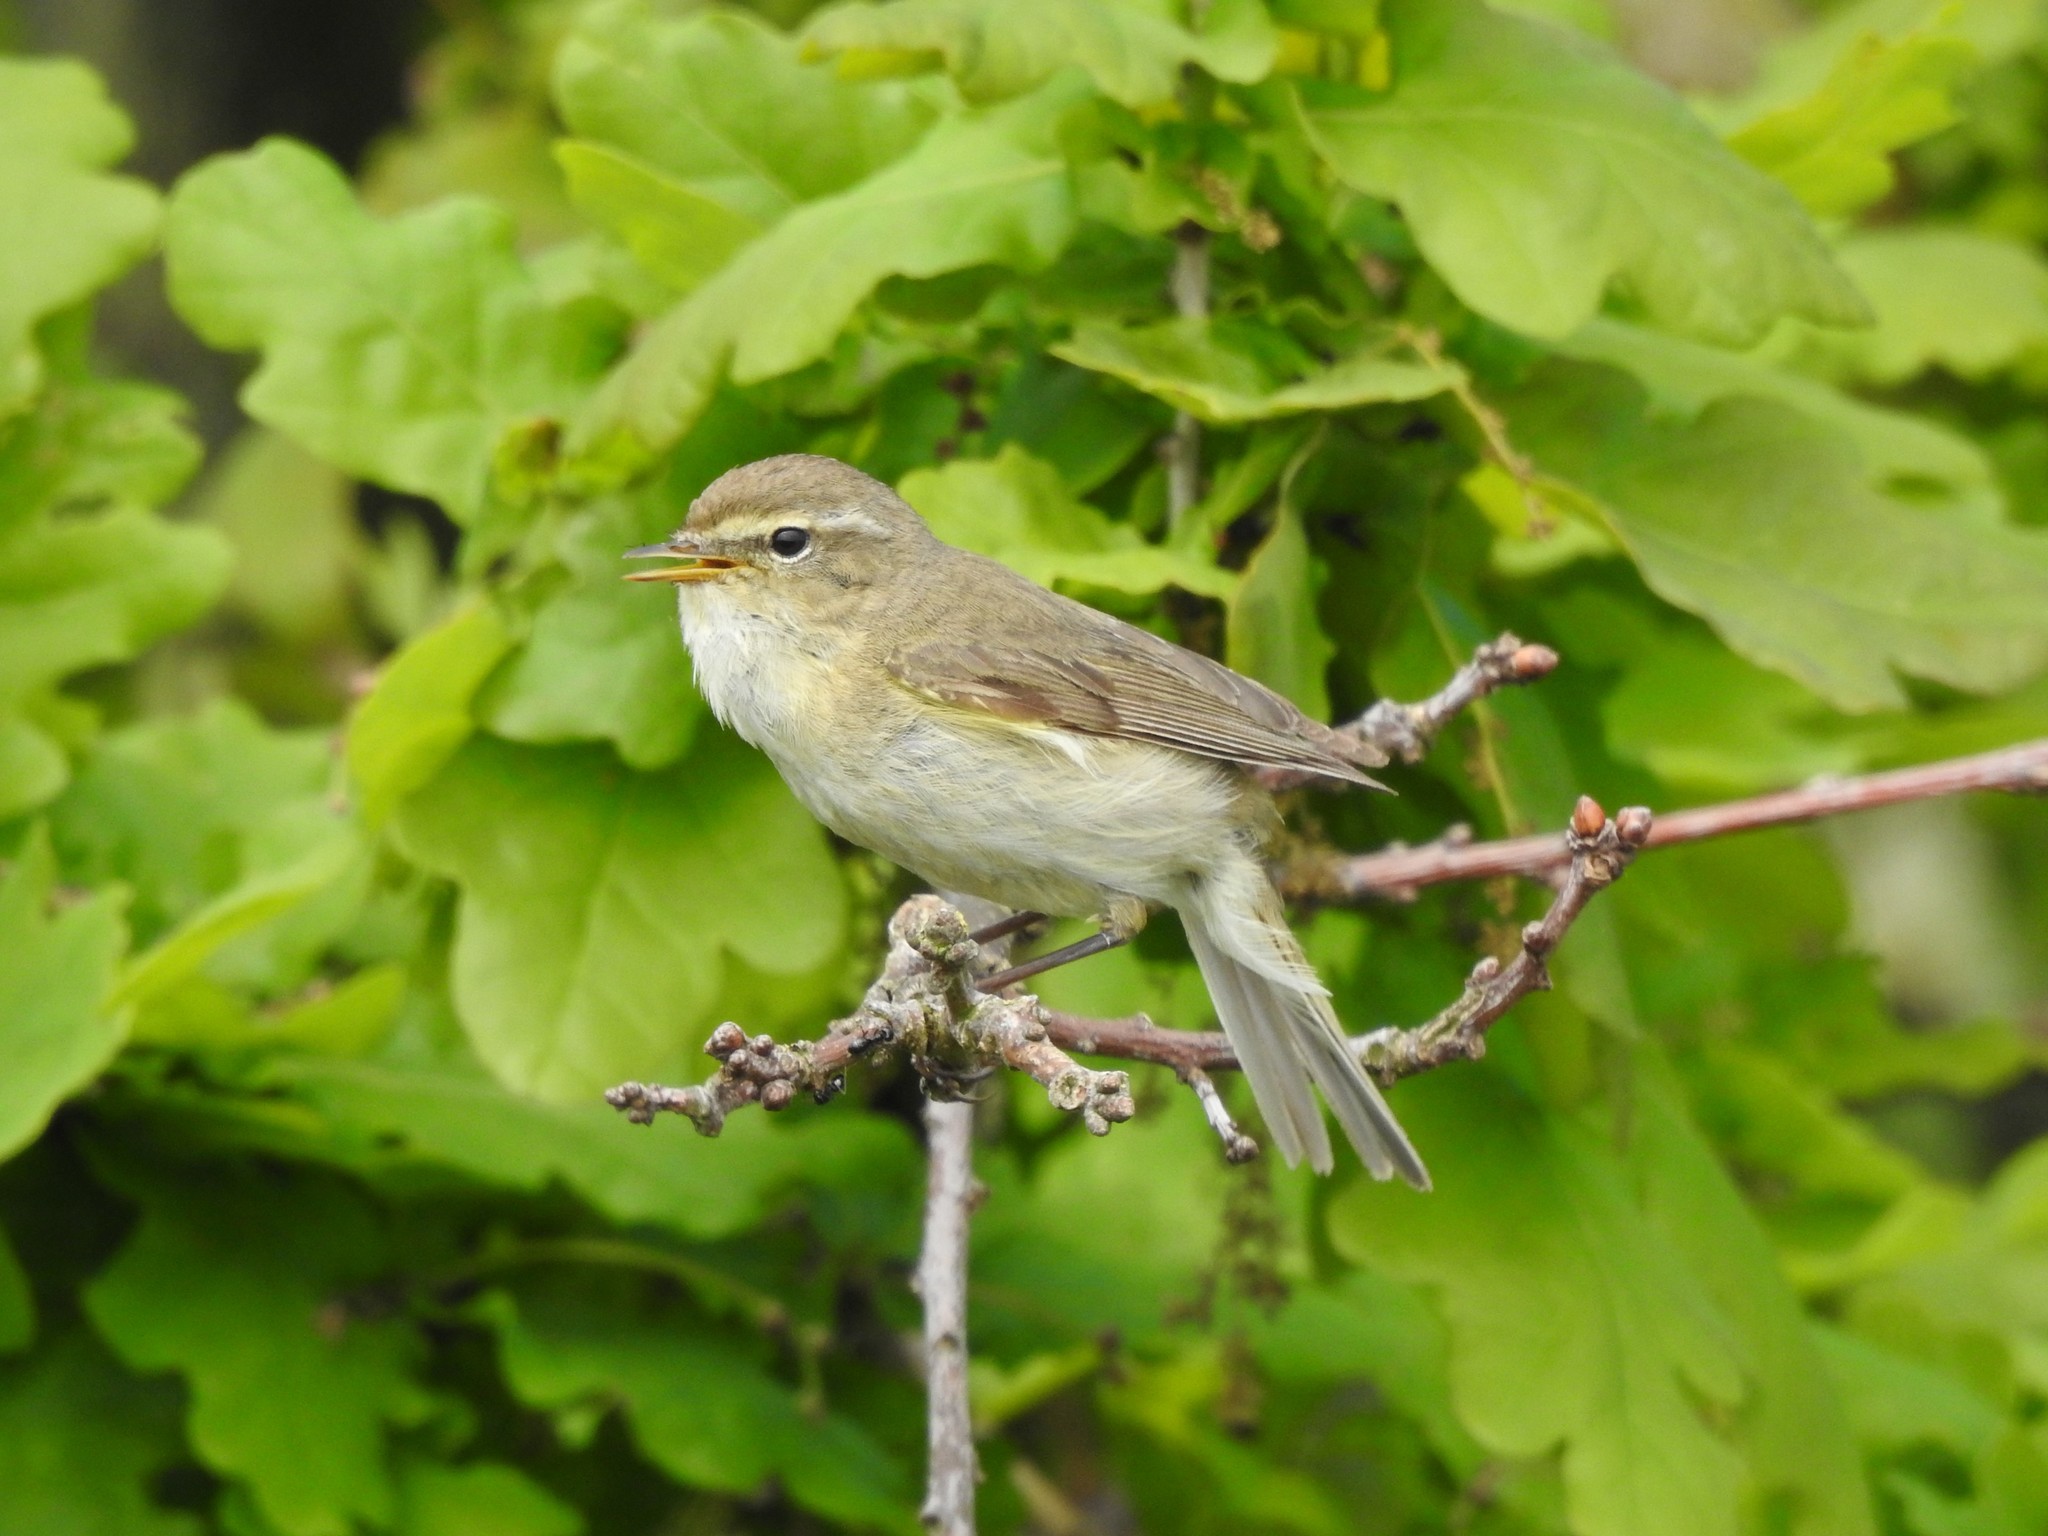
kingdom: Animalia
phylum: Chordata
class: Aves
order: Passeriformes
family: Phylloscopidae
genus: Phylloscopus
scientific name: Phylloscopus collybita
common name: Common chiffchaff
